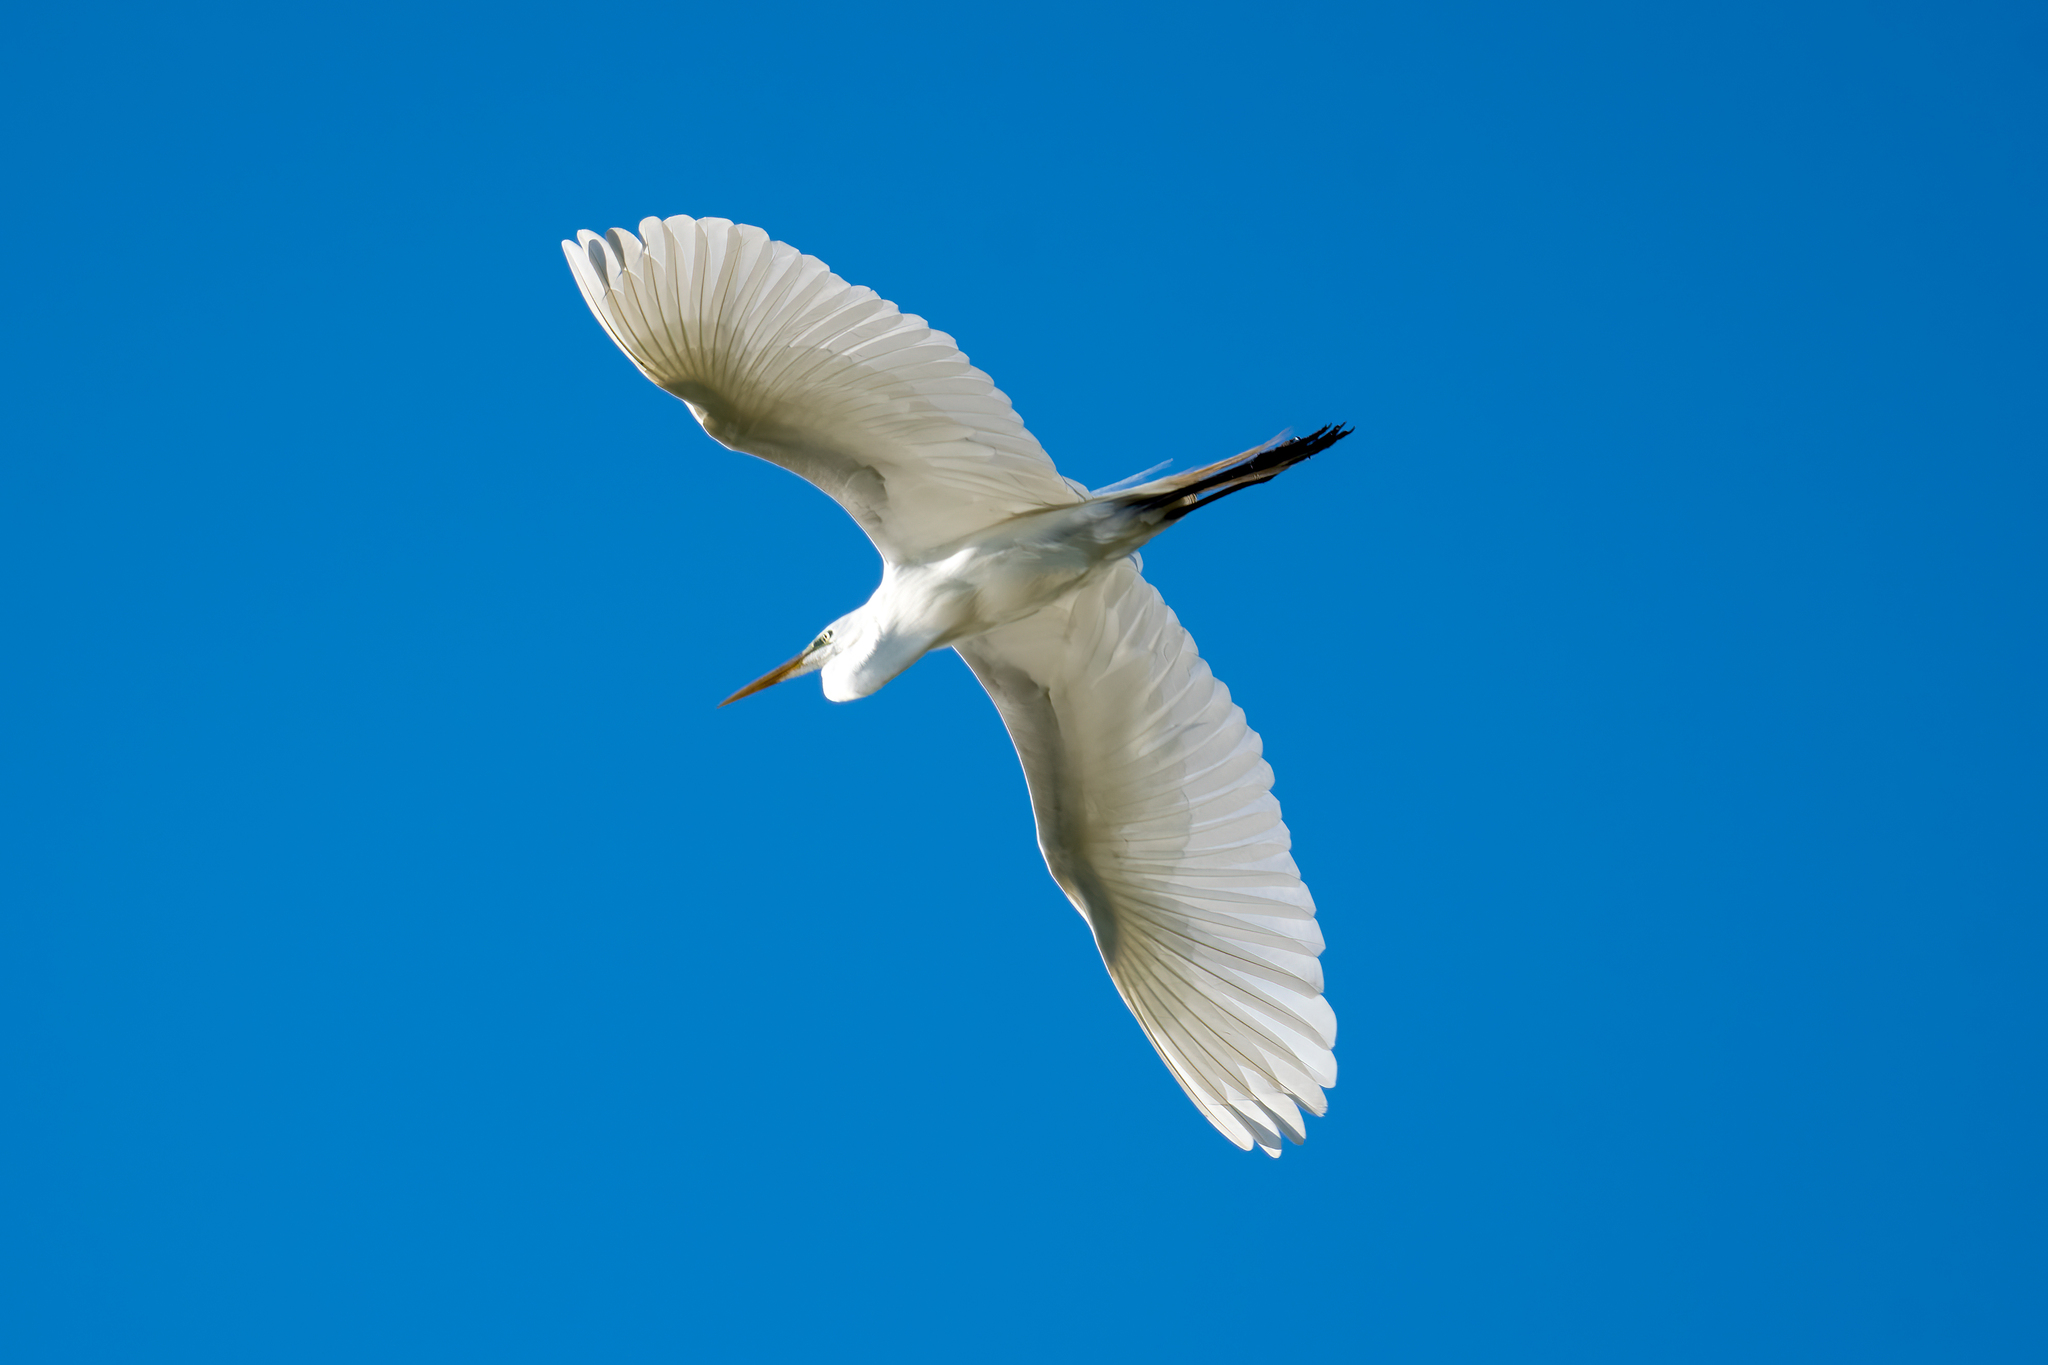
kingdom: Animalia
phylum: Chordata
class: Aves
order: Pelecaniformes
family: Ardeidae
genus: Ardea
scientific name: Ardea alba
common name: Great egret
